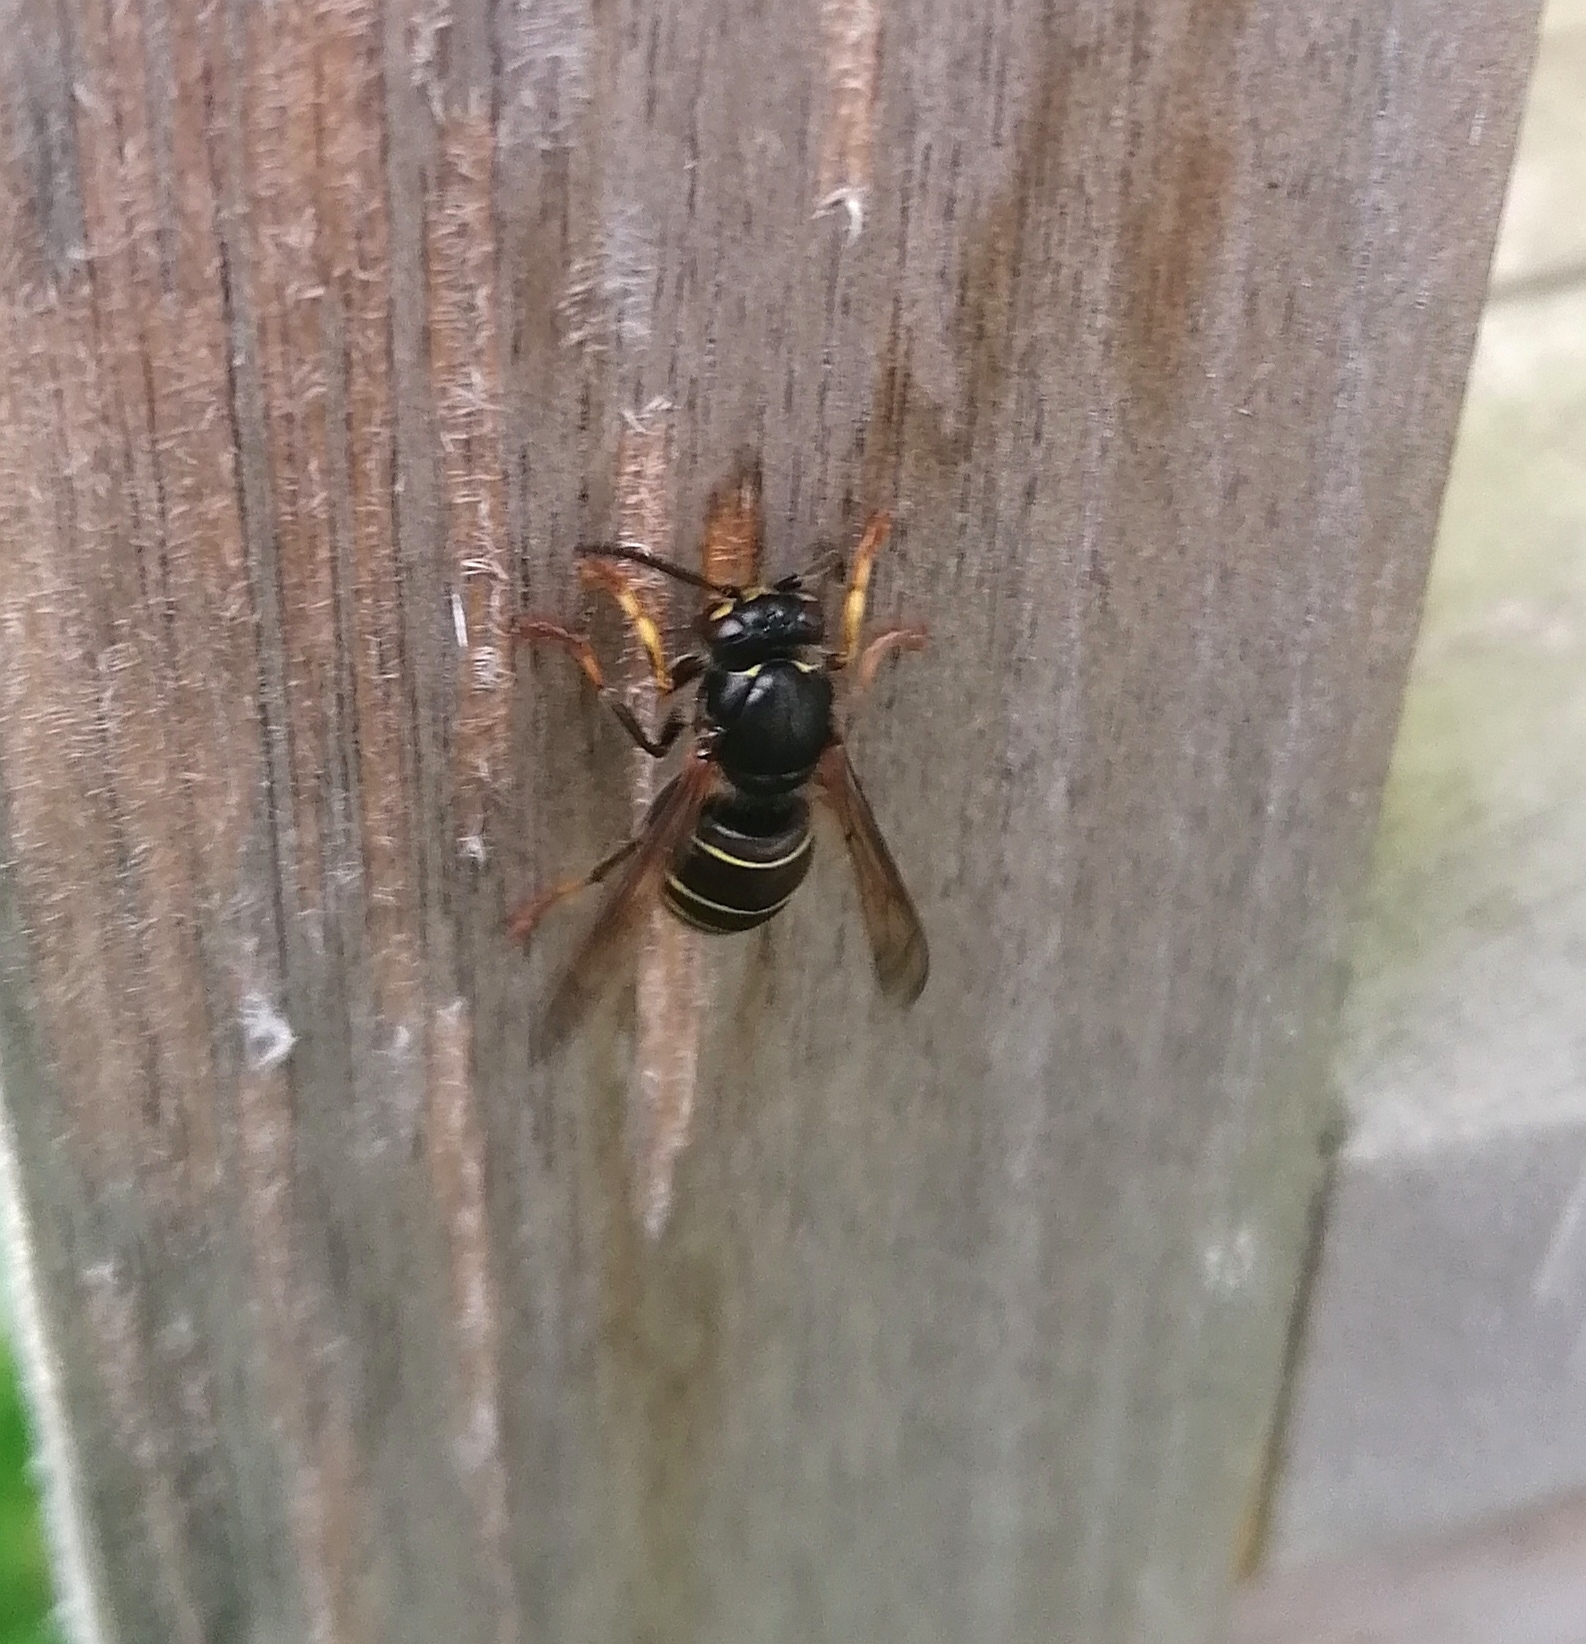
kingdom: Animalia
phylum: Arthropoda
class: Insecta
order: Hymenoptera
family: Vespidae
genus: Dolichovespula
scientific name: Dolichovespula media
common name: Median wasp
